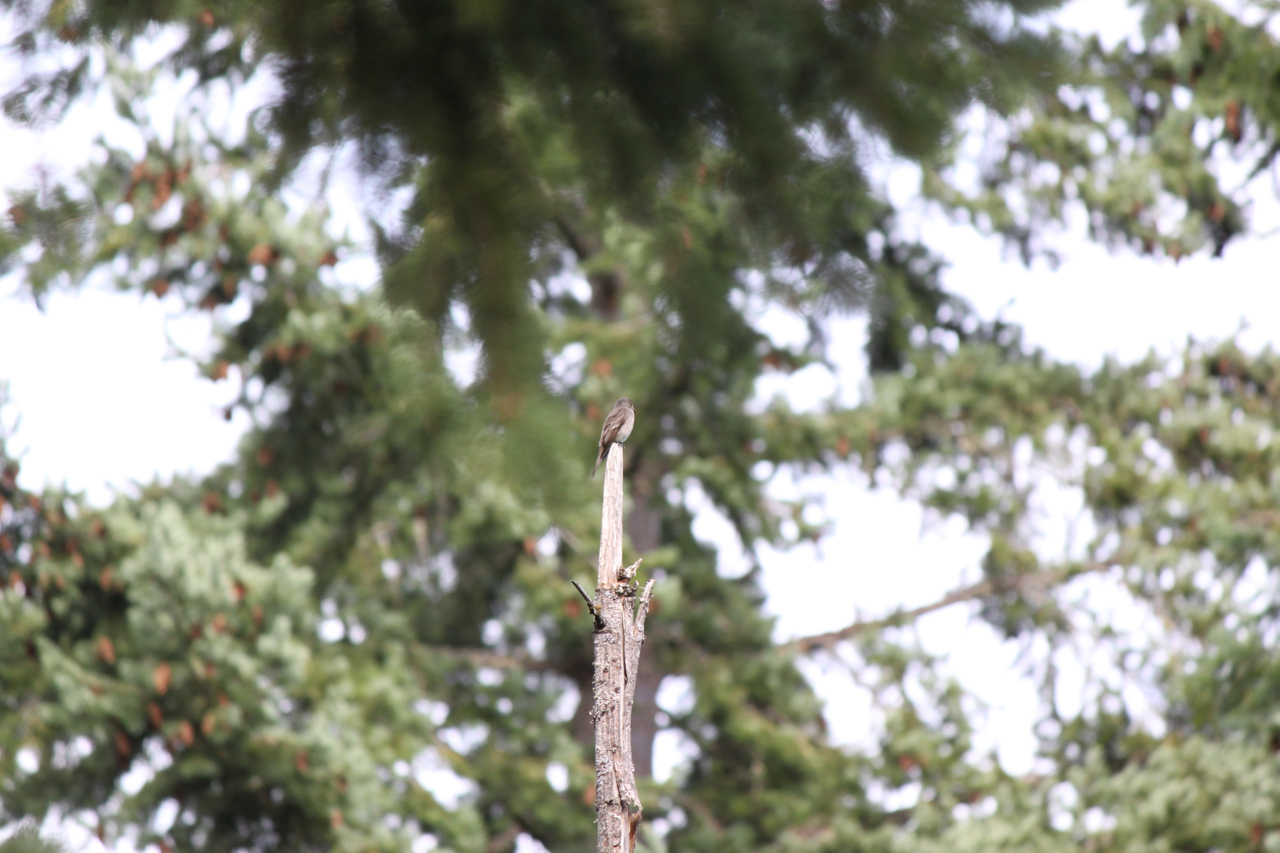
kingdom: Animalia
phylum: Chordata
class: Aves
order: Passeriformes
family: Tyrannidae
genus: Contopus
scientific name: Contopus sordidulus
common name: Western wood-pewee
